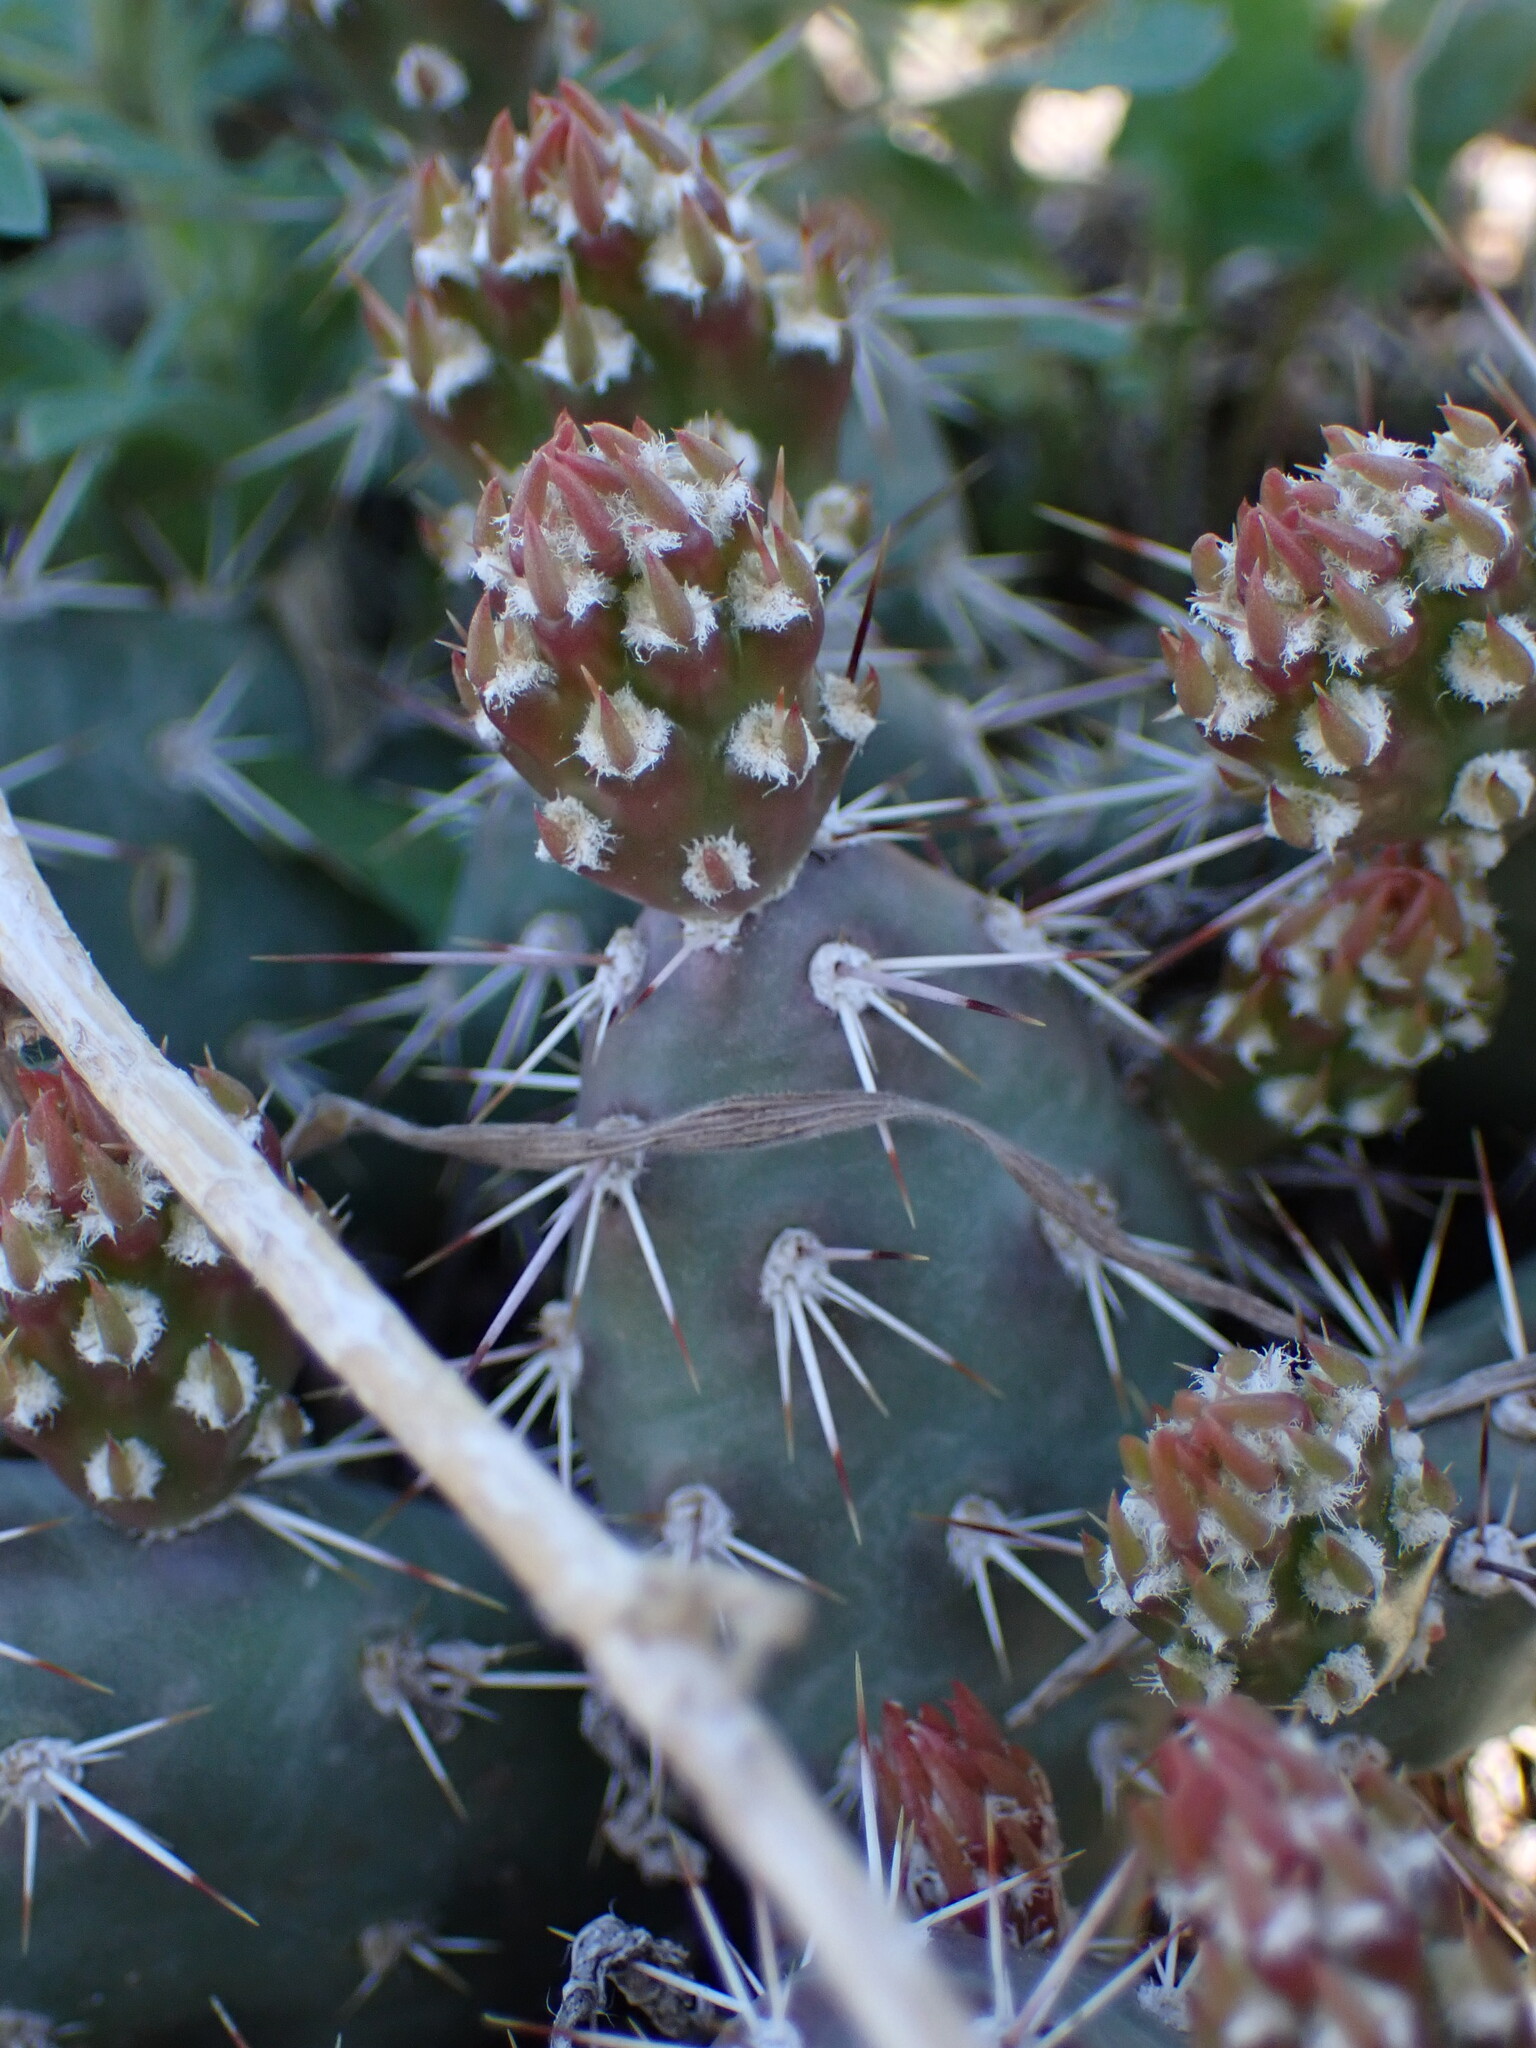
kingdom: Plantae
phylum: Tracheophyta
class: Magnoliopsida
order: Caryophyllales
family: Cactaceae
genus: Opuntia
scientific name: Opuntia fragilis
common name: Brittle cactus
